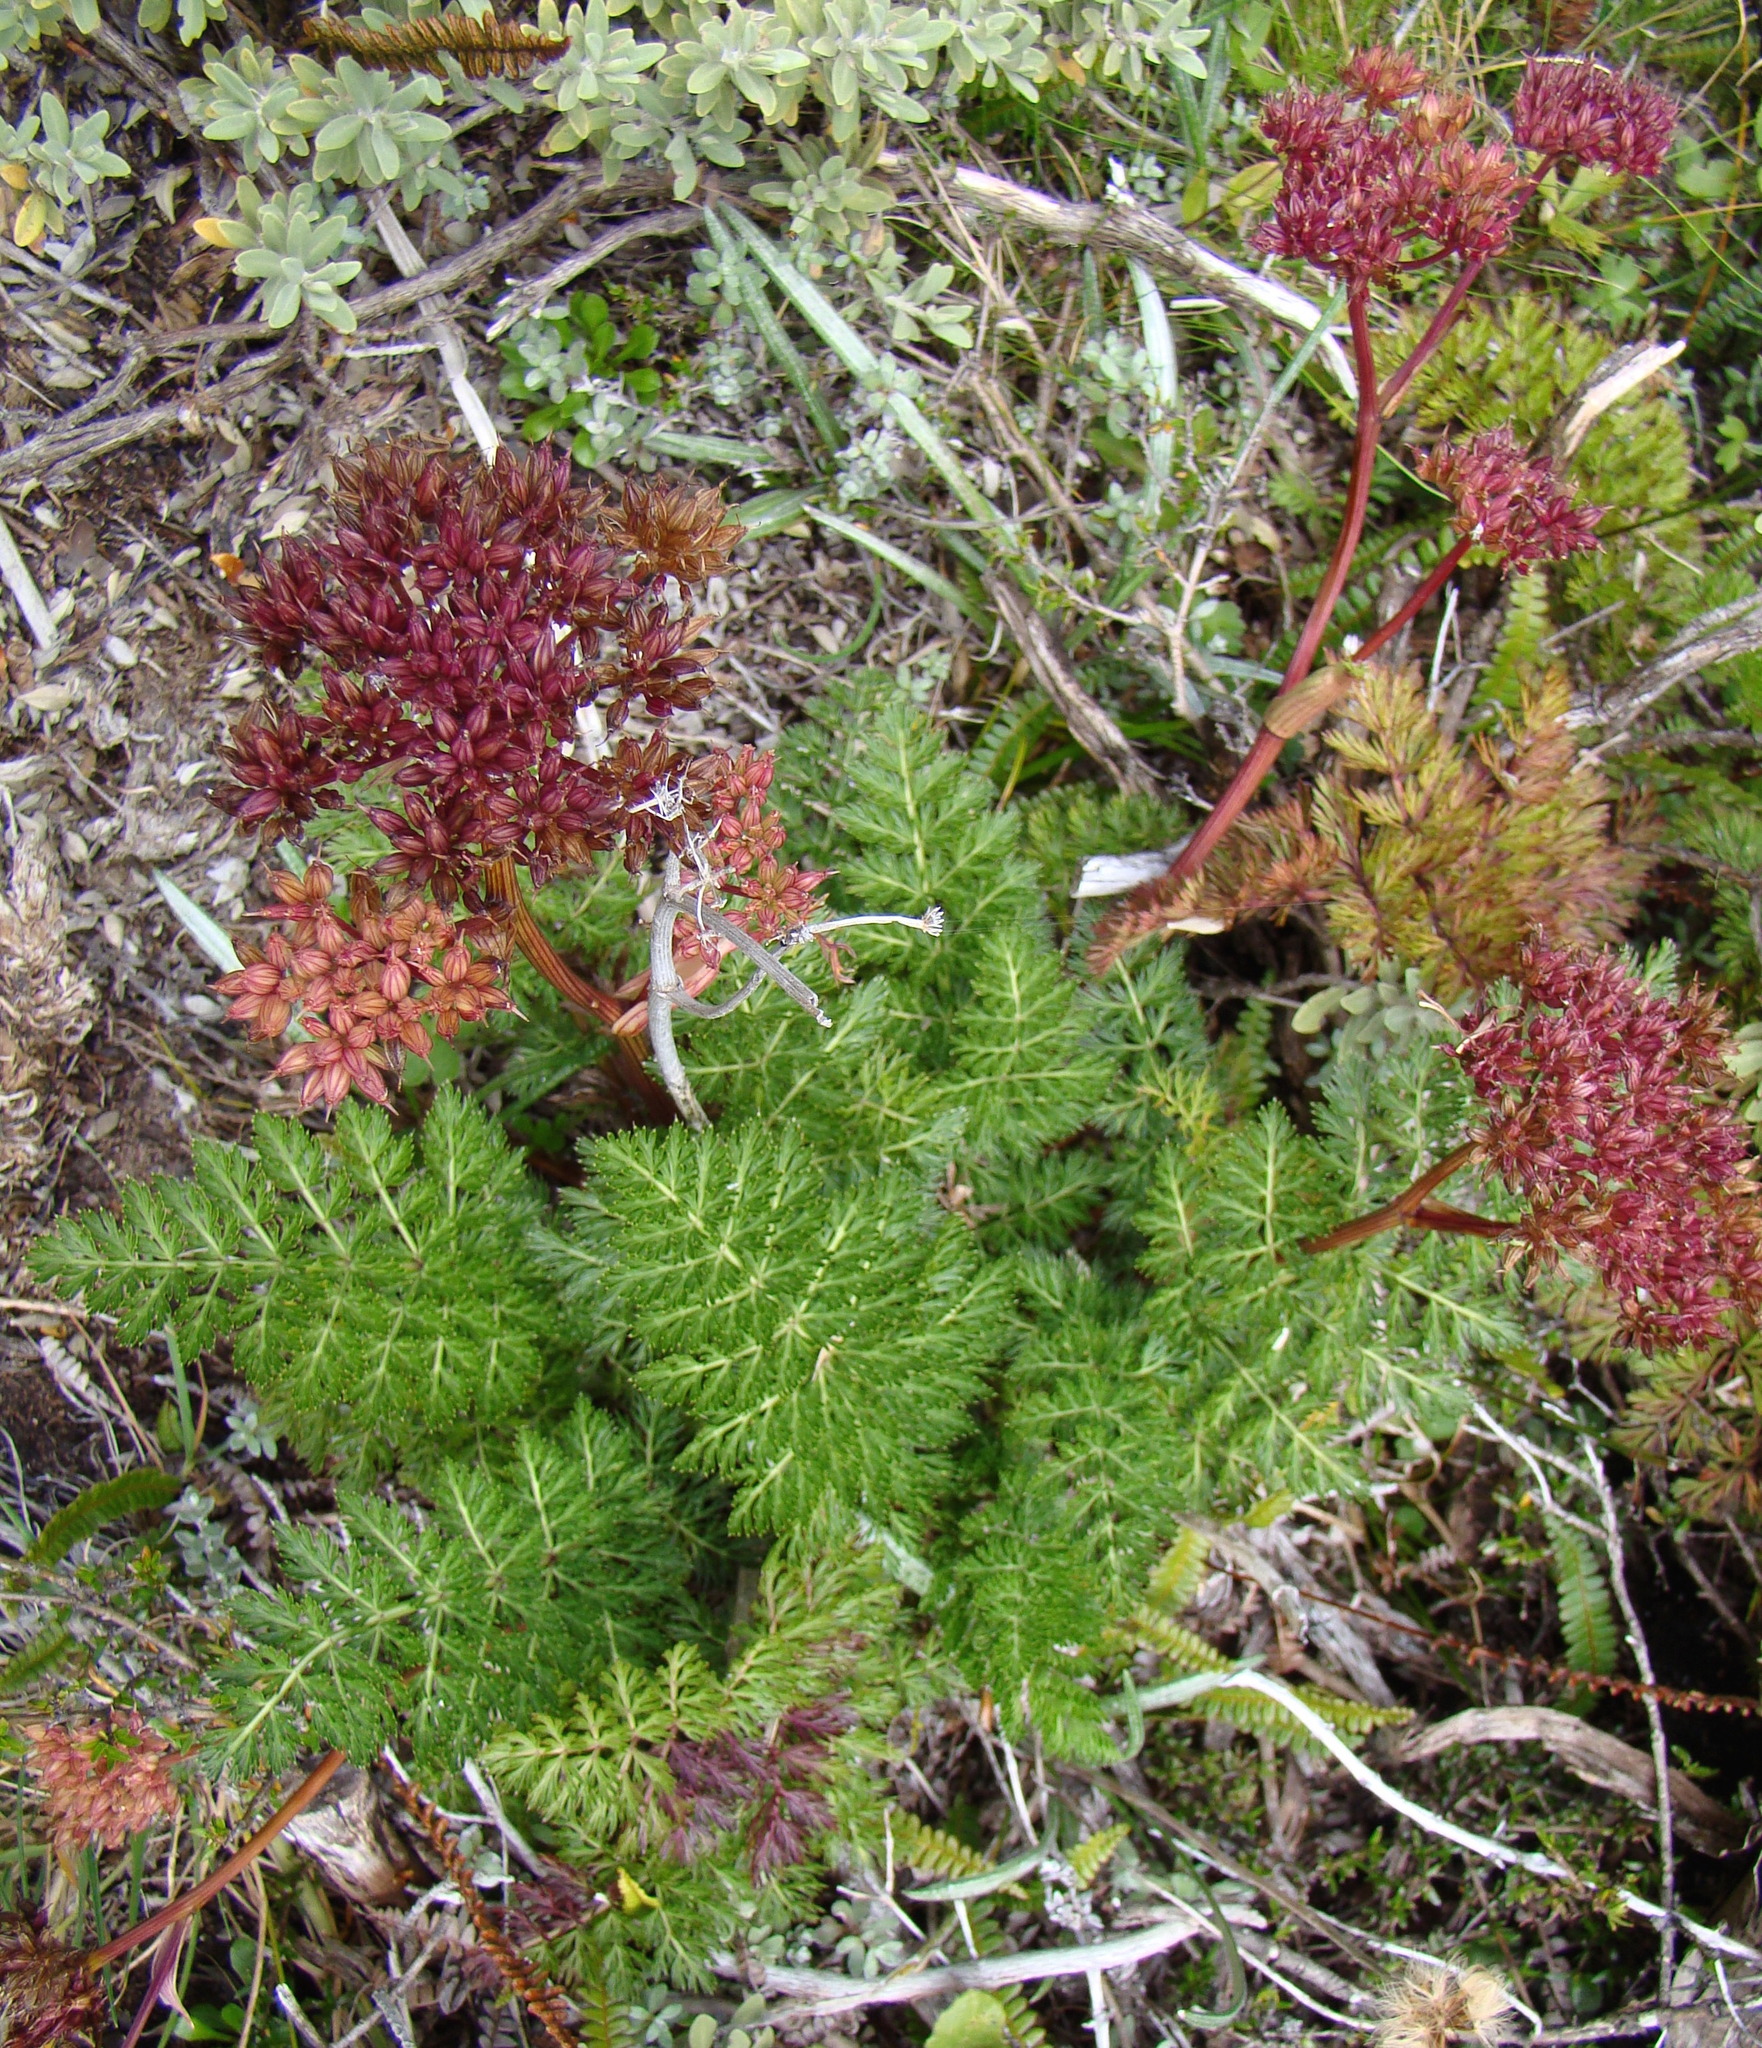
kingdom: Plantae
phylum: Tracheophyta
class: Magnoliopsida
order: Apiales
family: Apiaceae
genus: Anisotome
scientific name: Anisotome haastii
